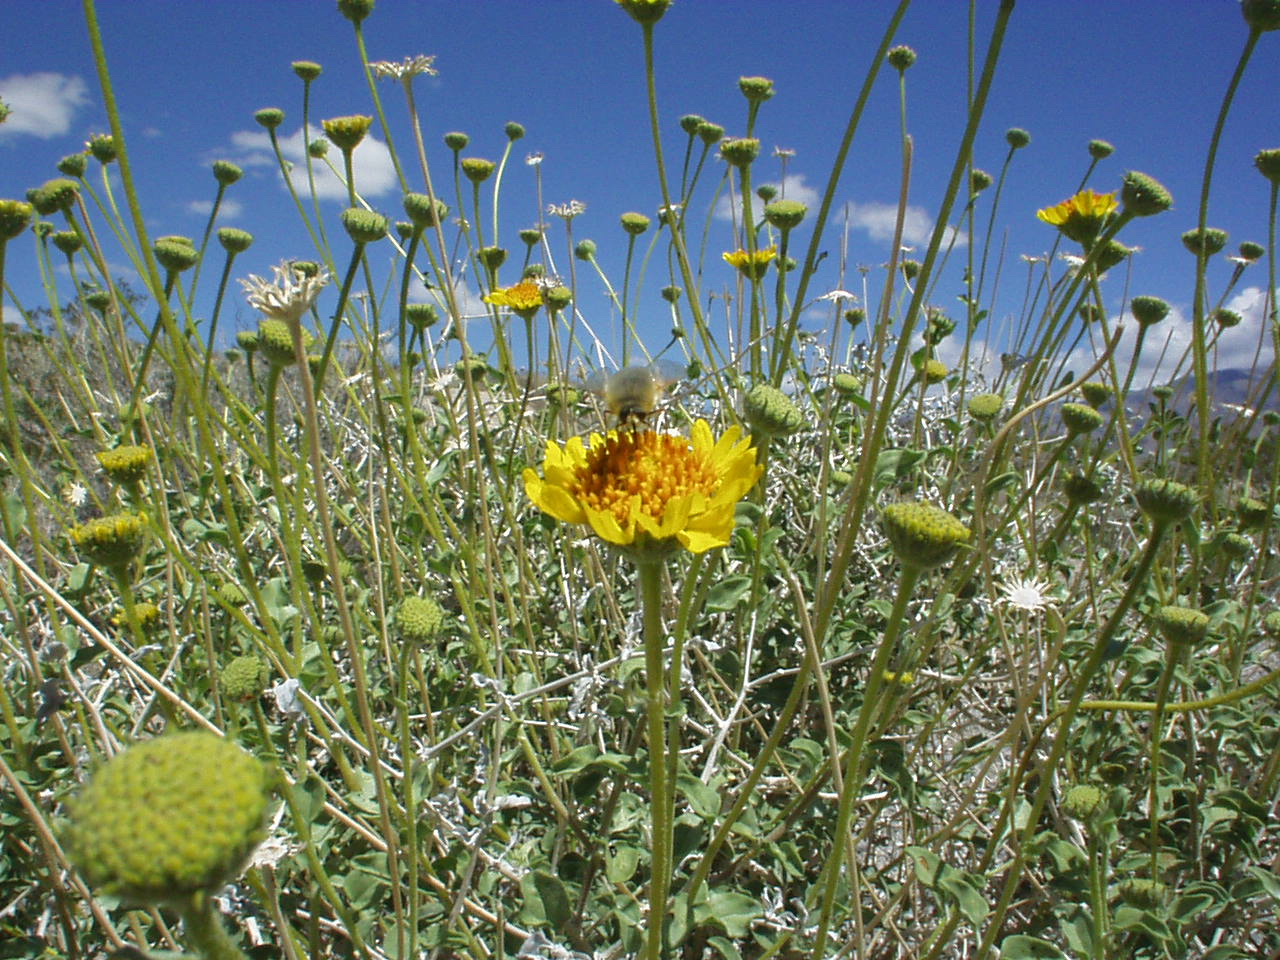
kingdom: Plantae
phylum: Tracheophyta
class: Magnoliopsida
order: Asterales
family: Asteraceae
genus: Encelia
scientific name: Encelia virginensis
